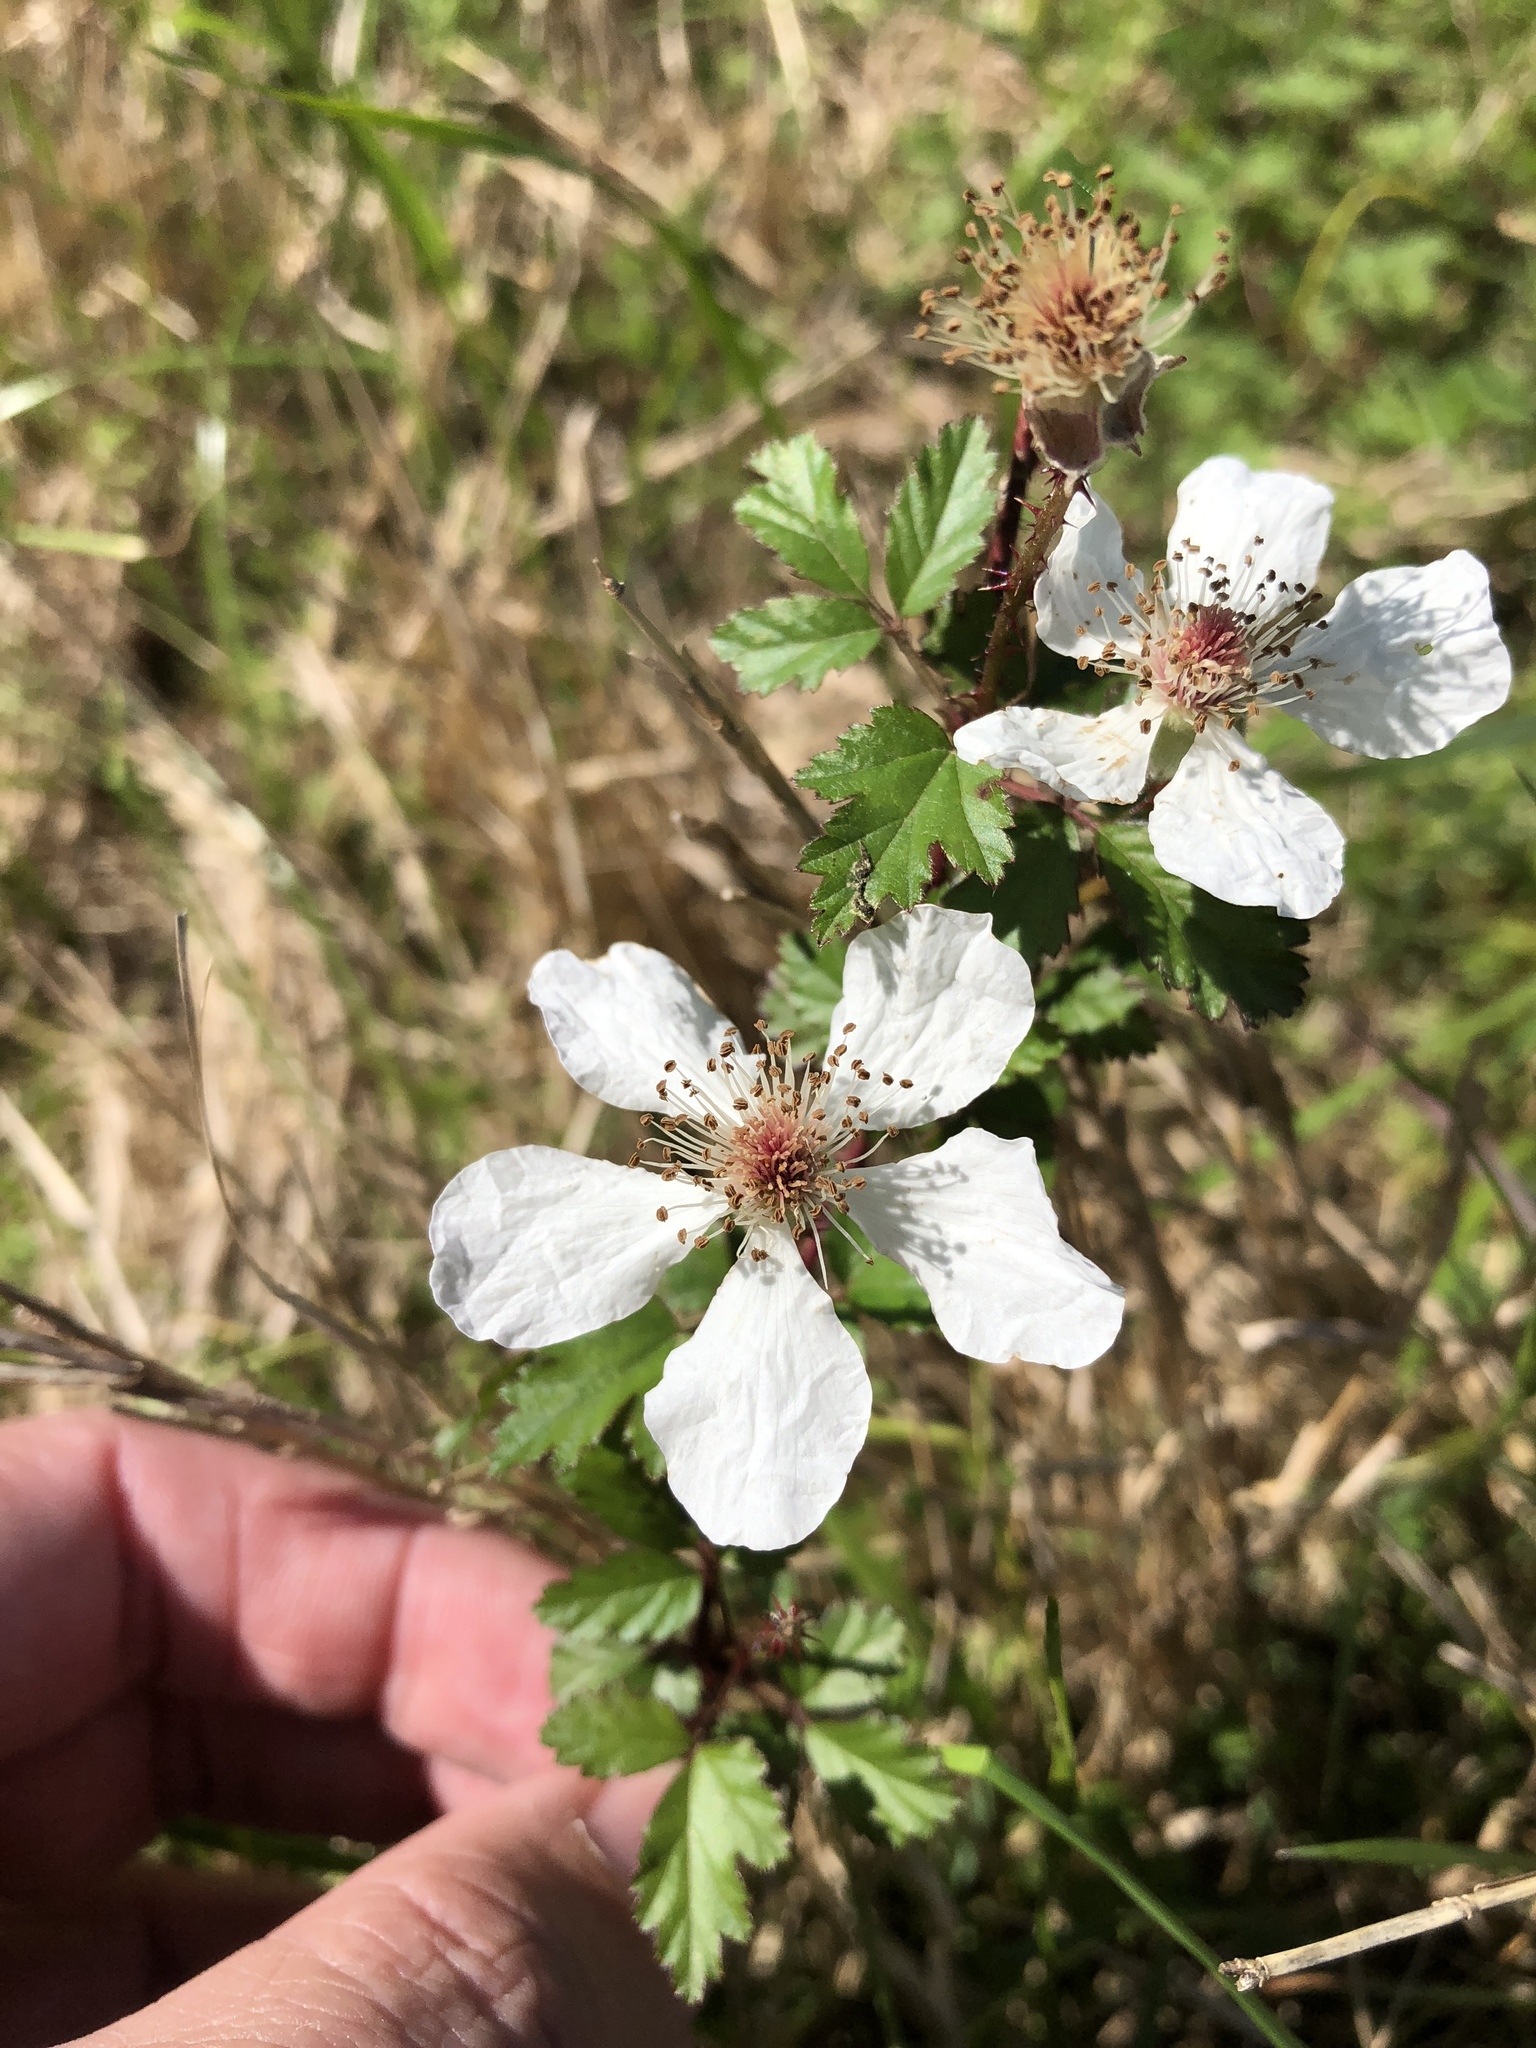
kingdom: Plantae
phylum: Tracheophyta
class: Magnoliopsida
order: Rosales
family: Rosaceae
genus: Rubus
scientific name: Rubus trivialis
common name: Southern dewberry
